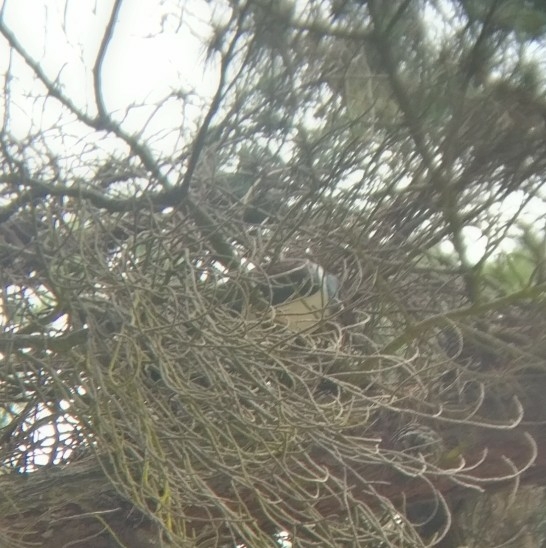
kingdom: Animalia
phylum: Chordata
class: Aves
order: Columbiformes
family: Columbidae
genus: Hemiphaga
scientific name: Hemiphaga novaeseelandiae
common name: New zealand pigeon
